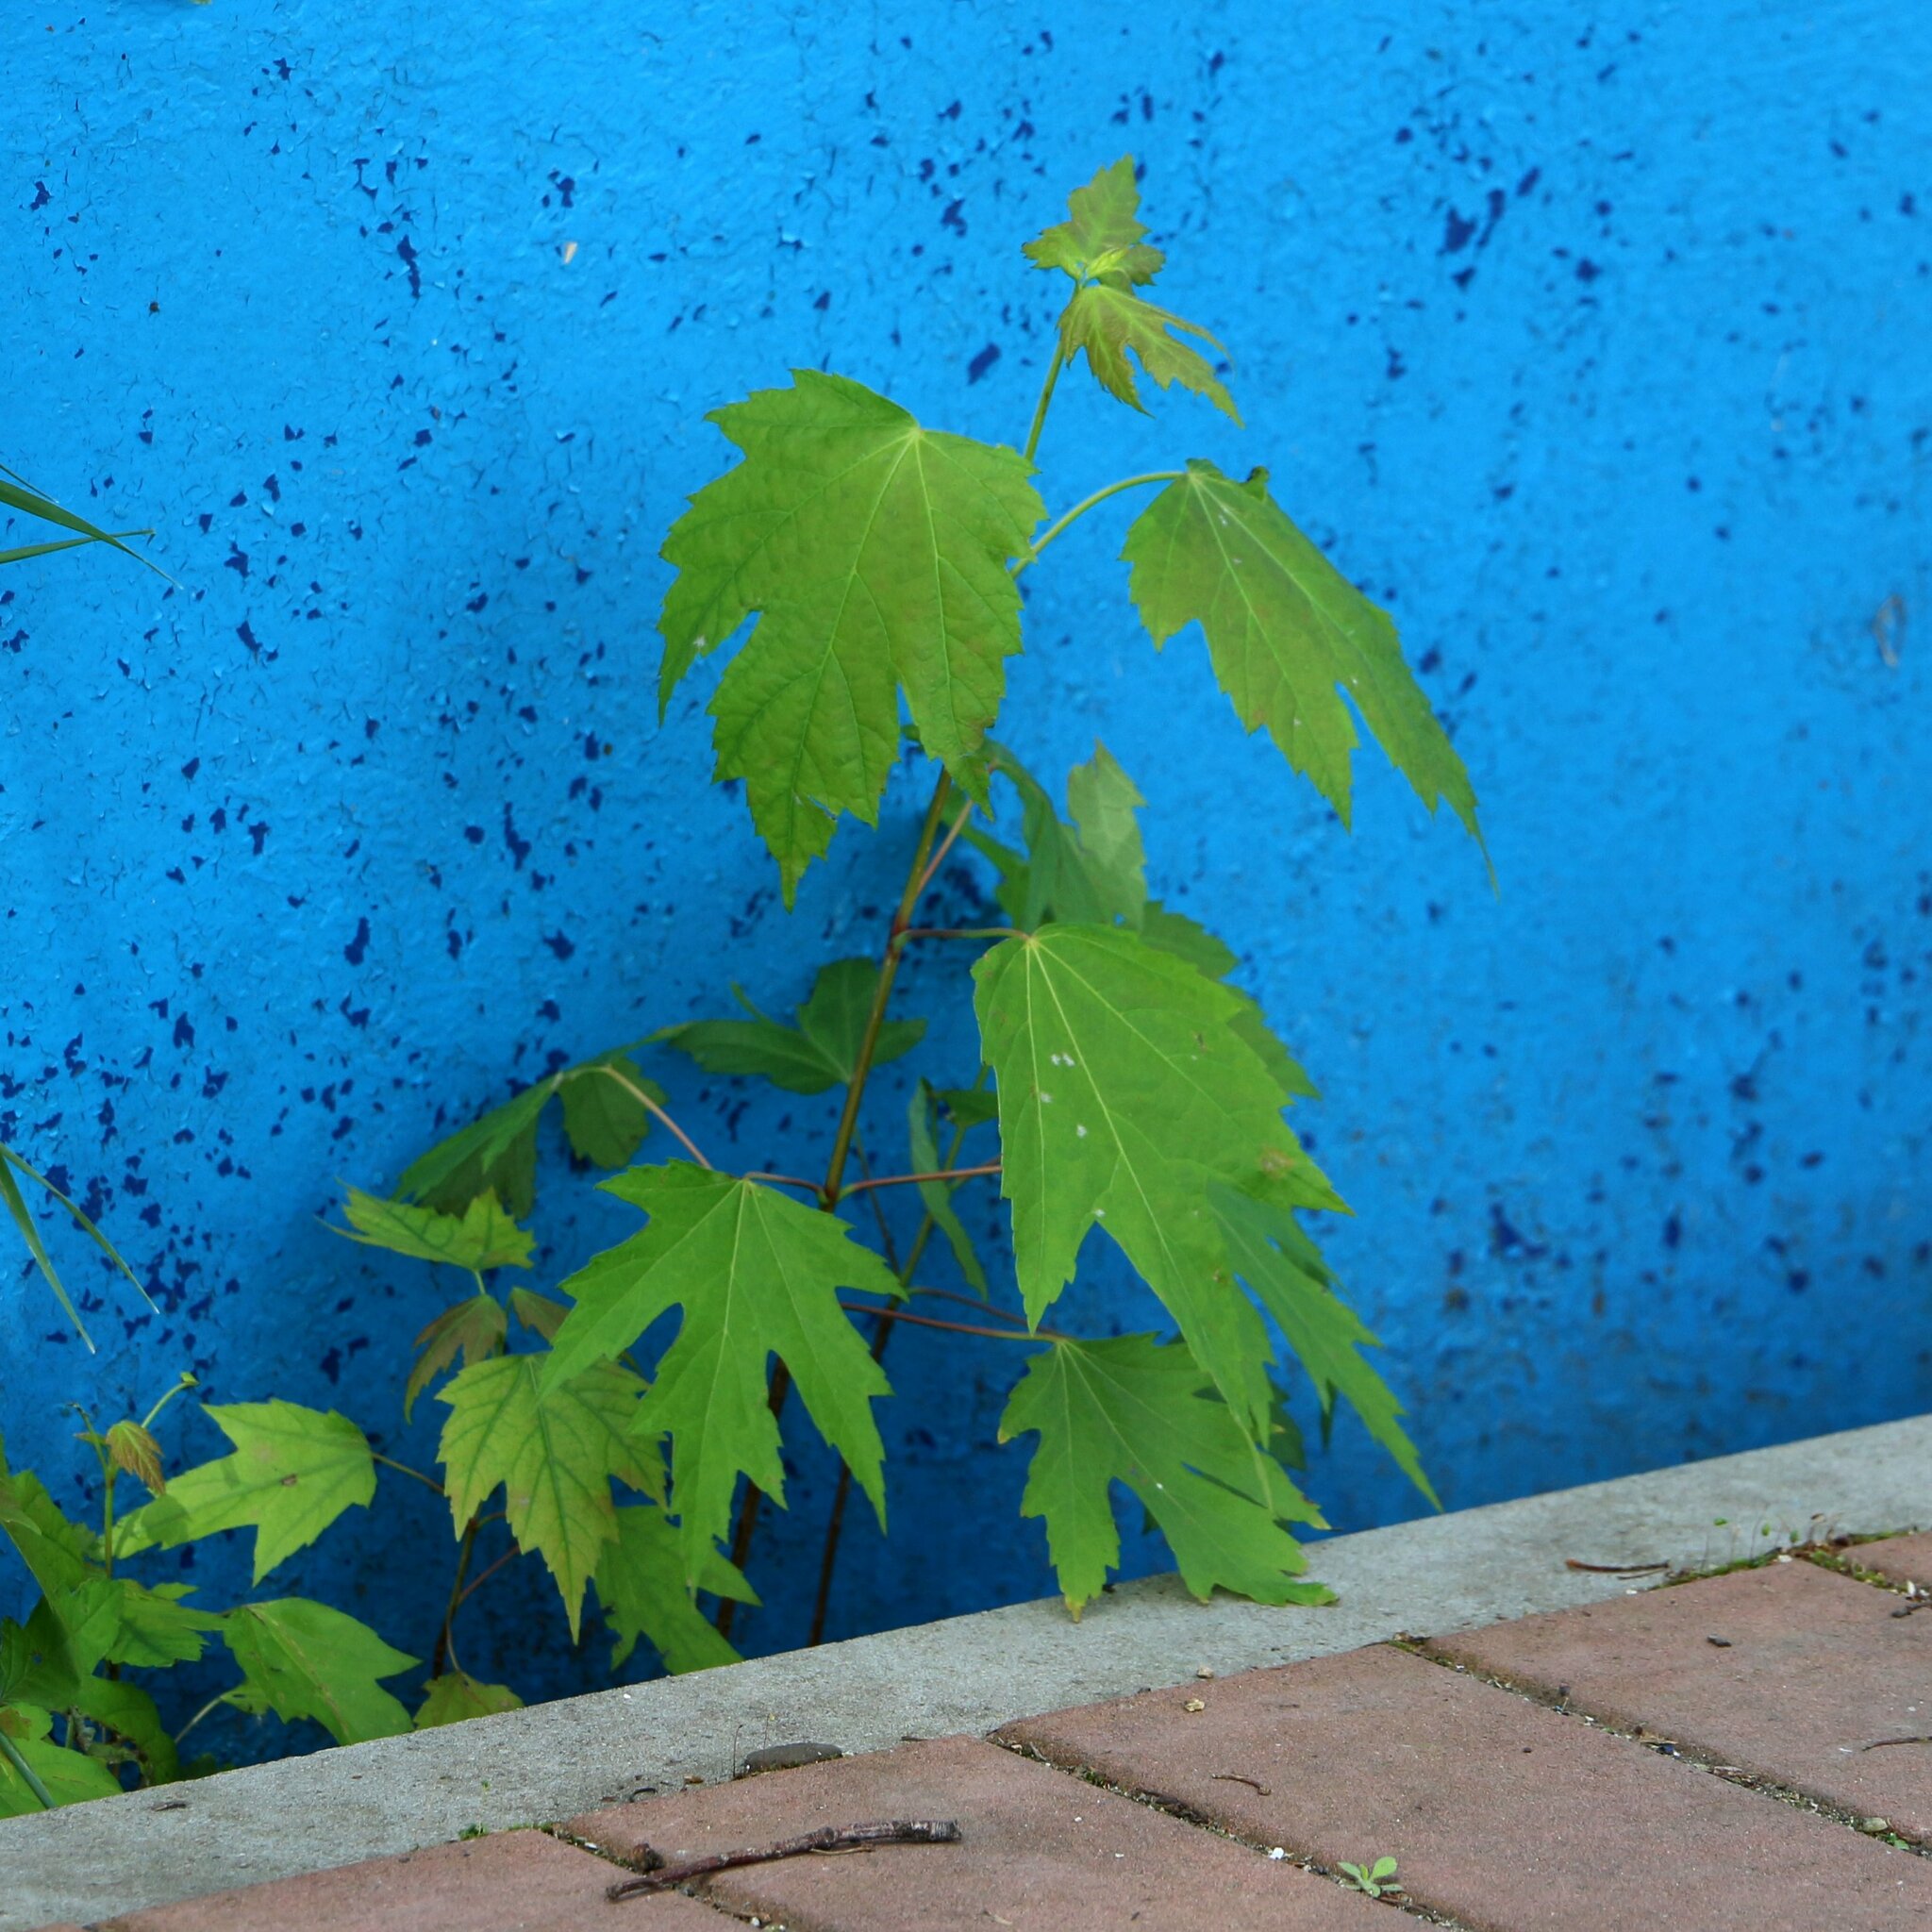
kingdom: Plantae
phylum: Tracheophyta
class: Magnoliopsida
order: Sapindales
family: Sapindaceae
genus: Acer
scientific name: Acer saccharinum
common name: Silver maple
